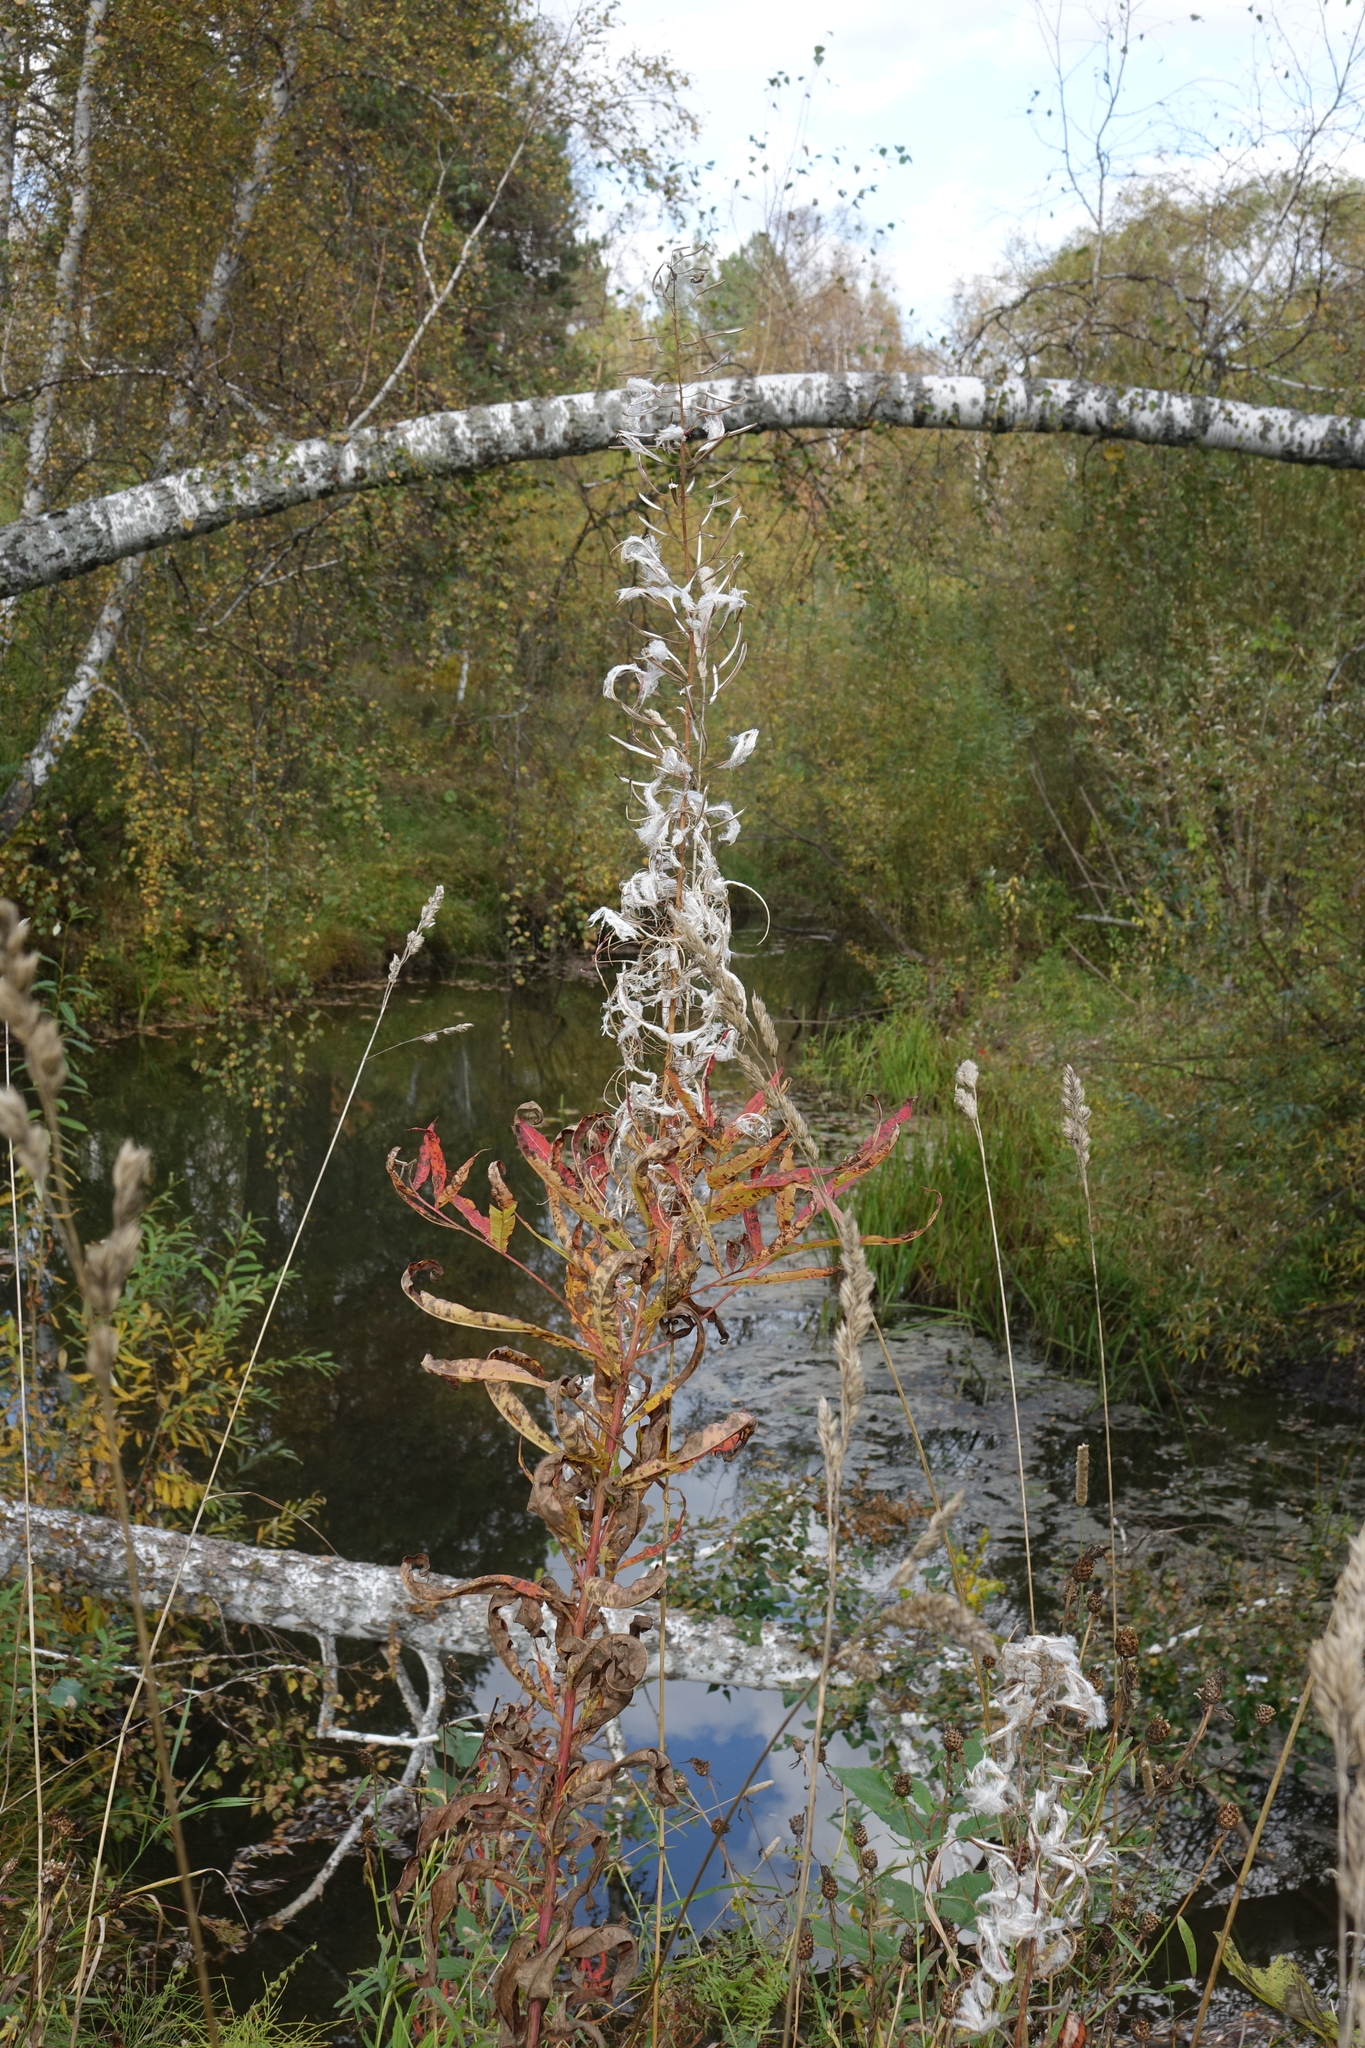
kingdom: Plantae
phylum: Tracheophyta
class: Magnoliopsida
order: Myrtales
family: Onagraceae
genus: Chamaenerion
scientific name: Chamaenerion angustifolium
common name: Fireweed
